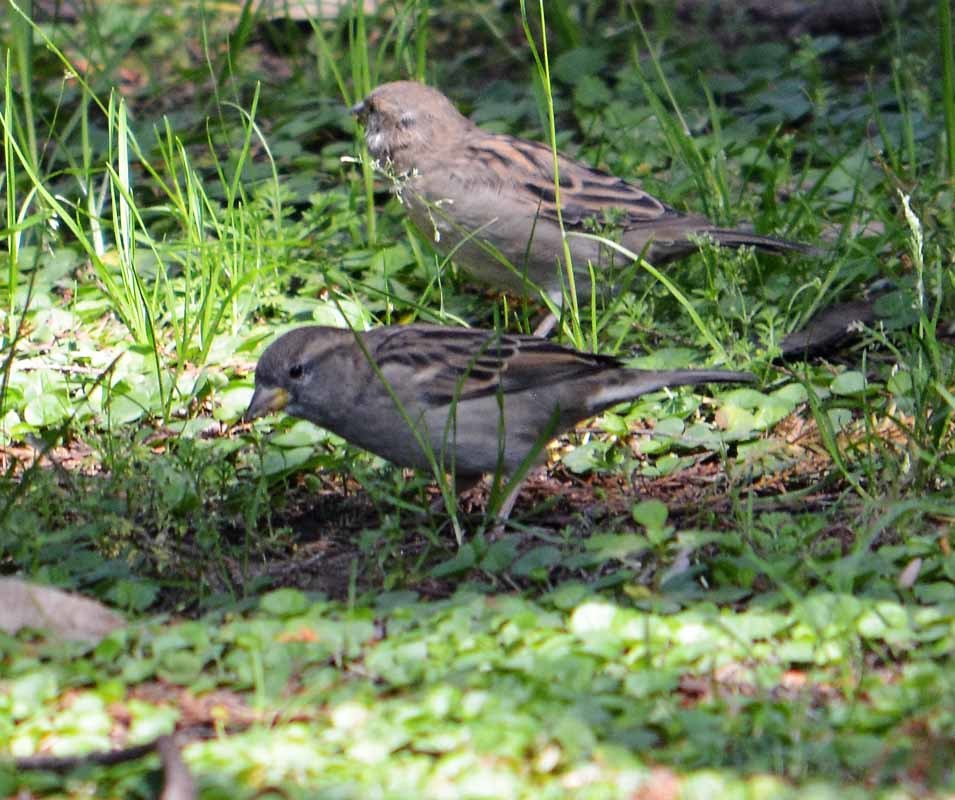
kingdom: Animalia
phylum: Chordata
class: Aves
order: Passeriformes
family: Passeridae
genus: Passer
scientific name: Passer domesticus
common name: House sparrow
